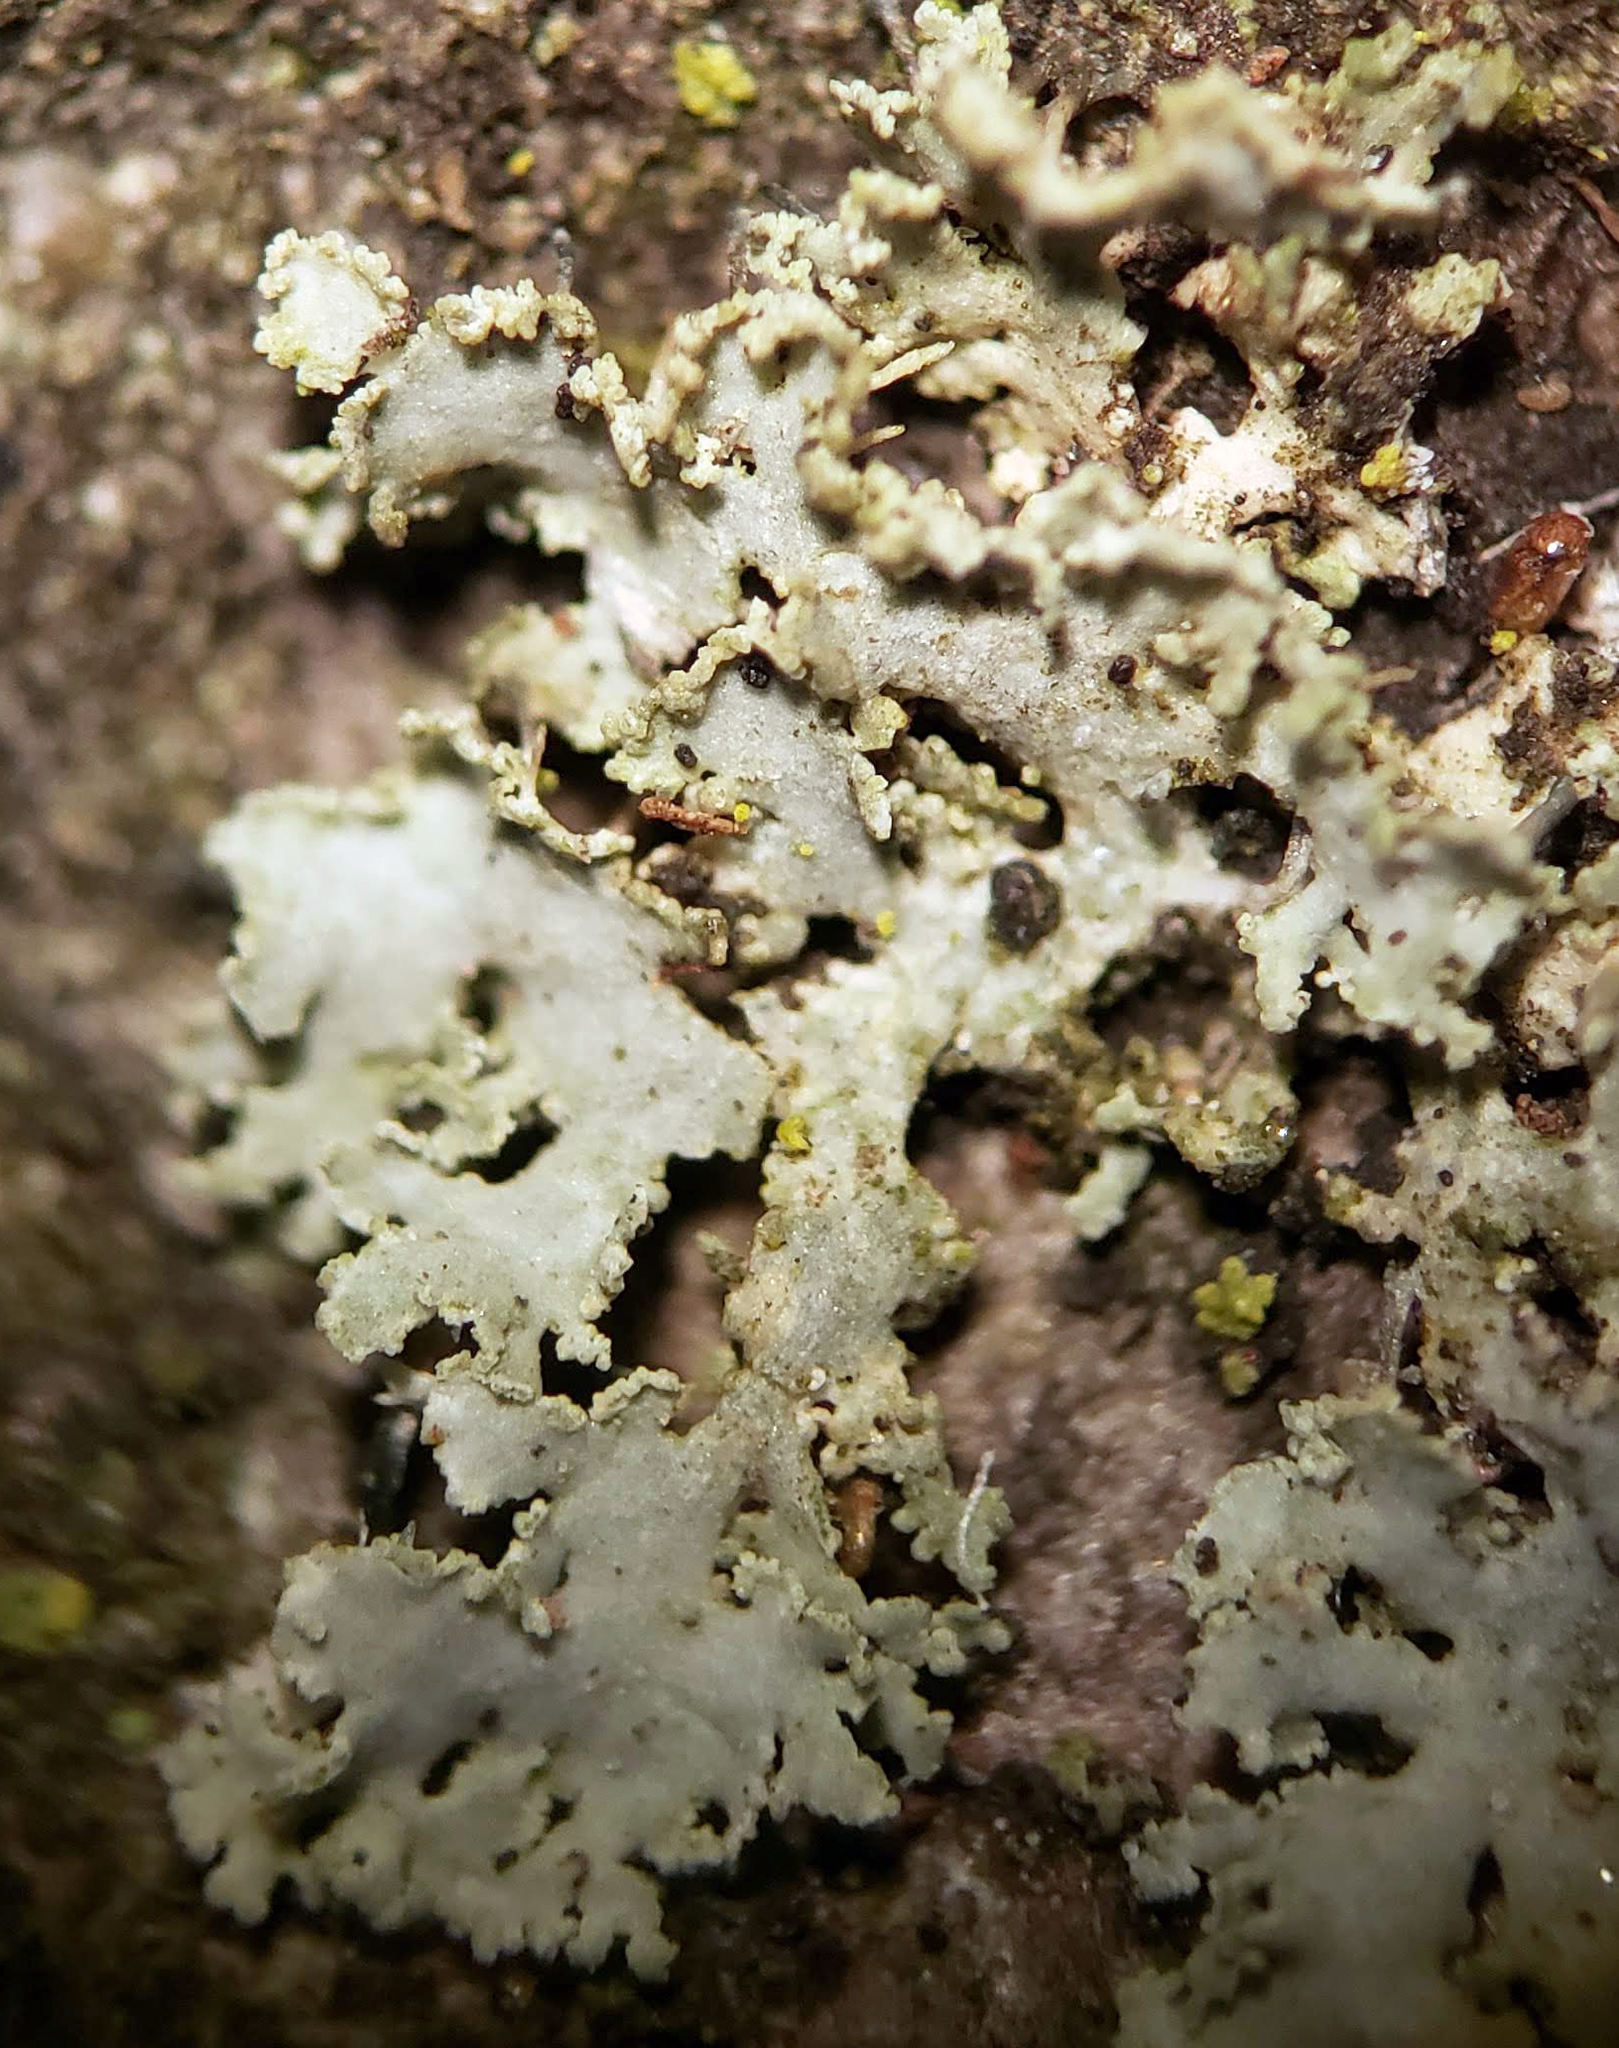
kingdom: Fungi
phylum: Ascomycota
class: Lecanoromycetes
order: Caliciales
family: Physciaceae
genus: Physcia
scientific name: Physcia millegrana
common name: Rosette lichen
